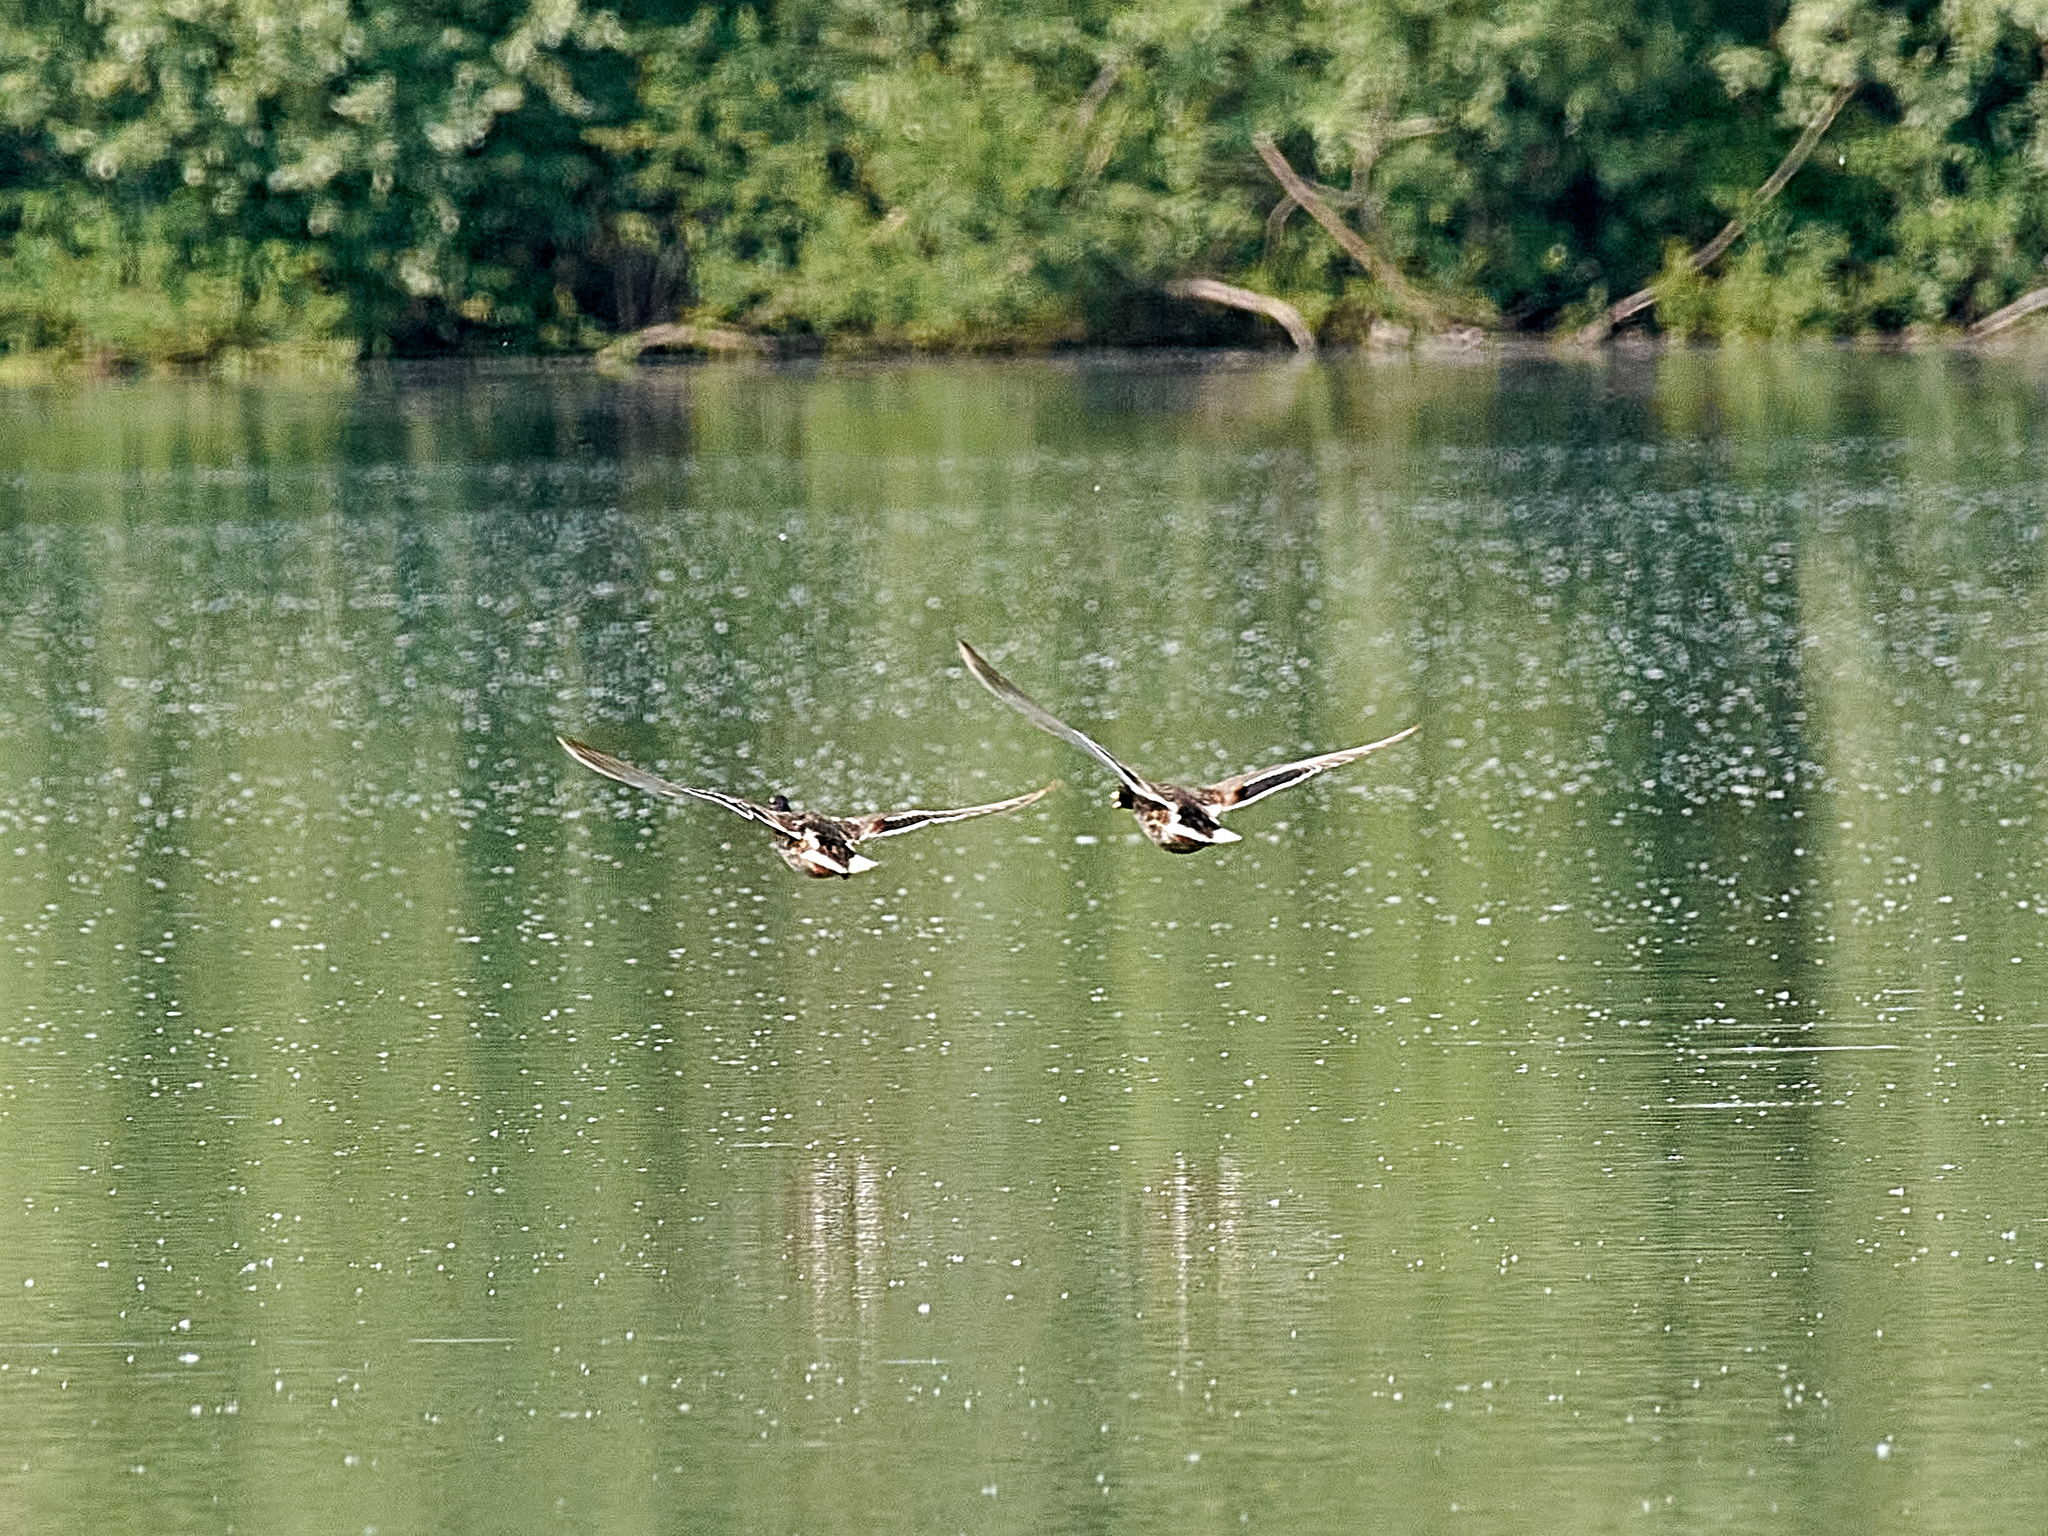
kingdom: Animalia
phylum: Chordata
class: Aves
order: Anseriformes
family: Anatidae
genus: Anas
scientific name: Anas platyrhynchos
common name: Mallard
